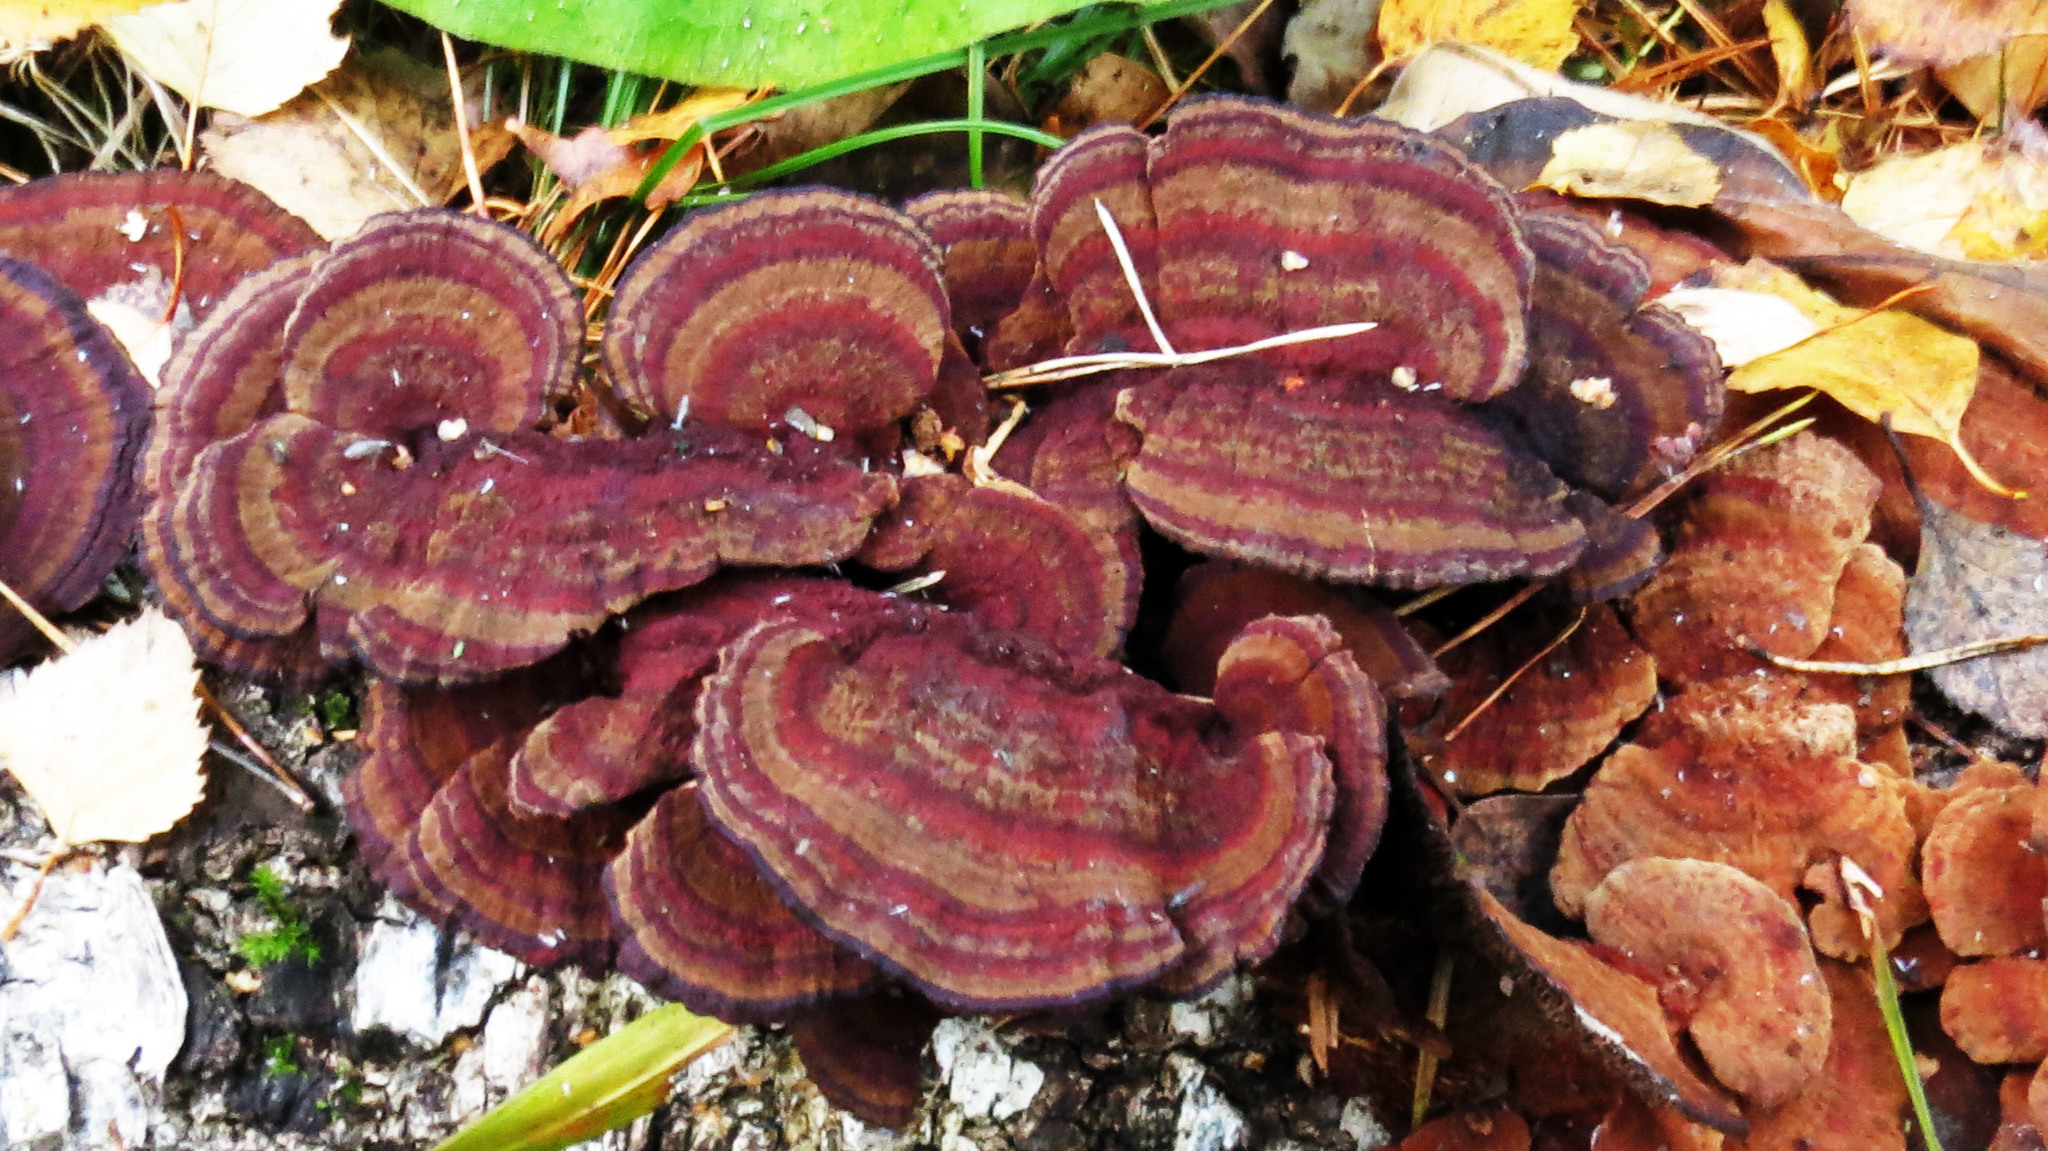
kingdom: Fungi
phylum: Basidiomycota
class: Agaricomycetes
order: Polyporales
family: Polyporaceae
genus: Daedaleopsis
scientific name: Daedaleopsis tricolor
